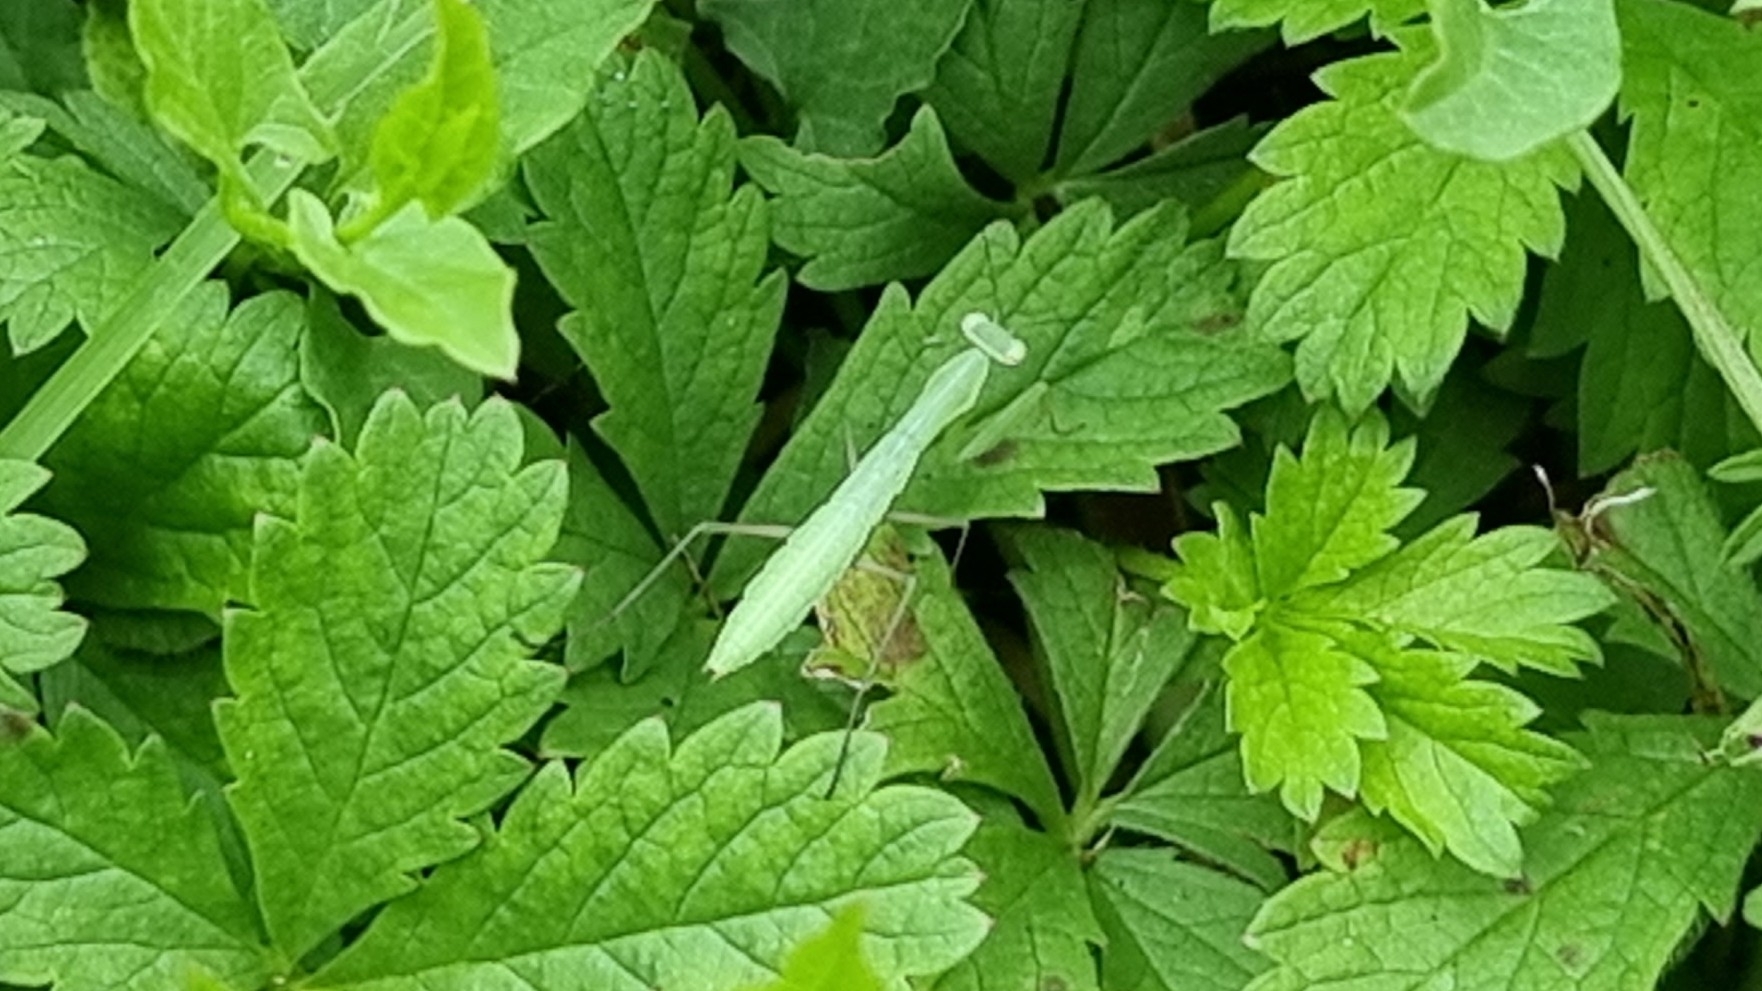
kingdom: Animalia
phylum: Arthropoda
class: Insecta
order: Mantodea
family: Mantidae
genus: Mantis
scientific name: Mantis religiosa
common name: Praying mantis
